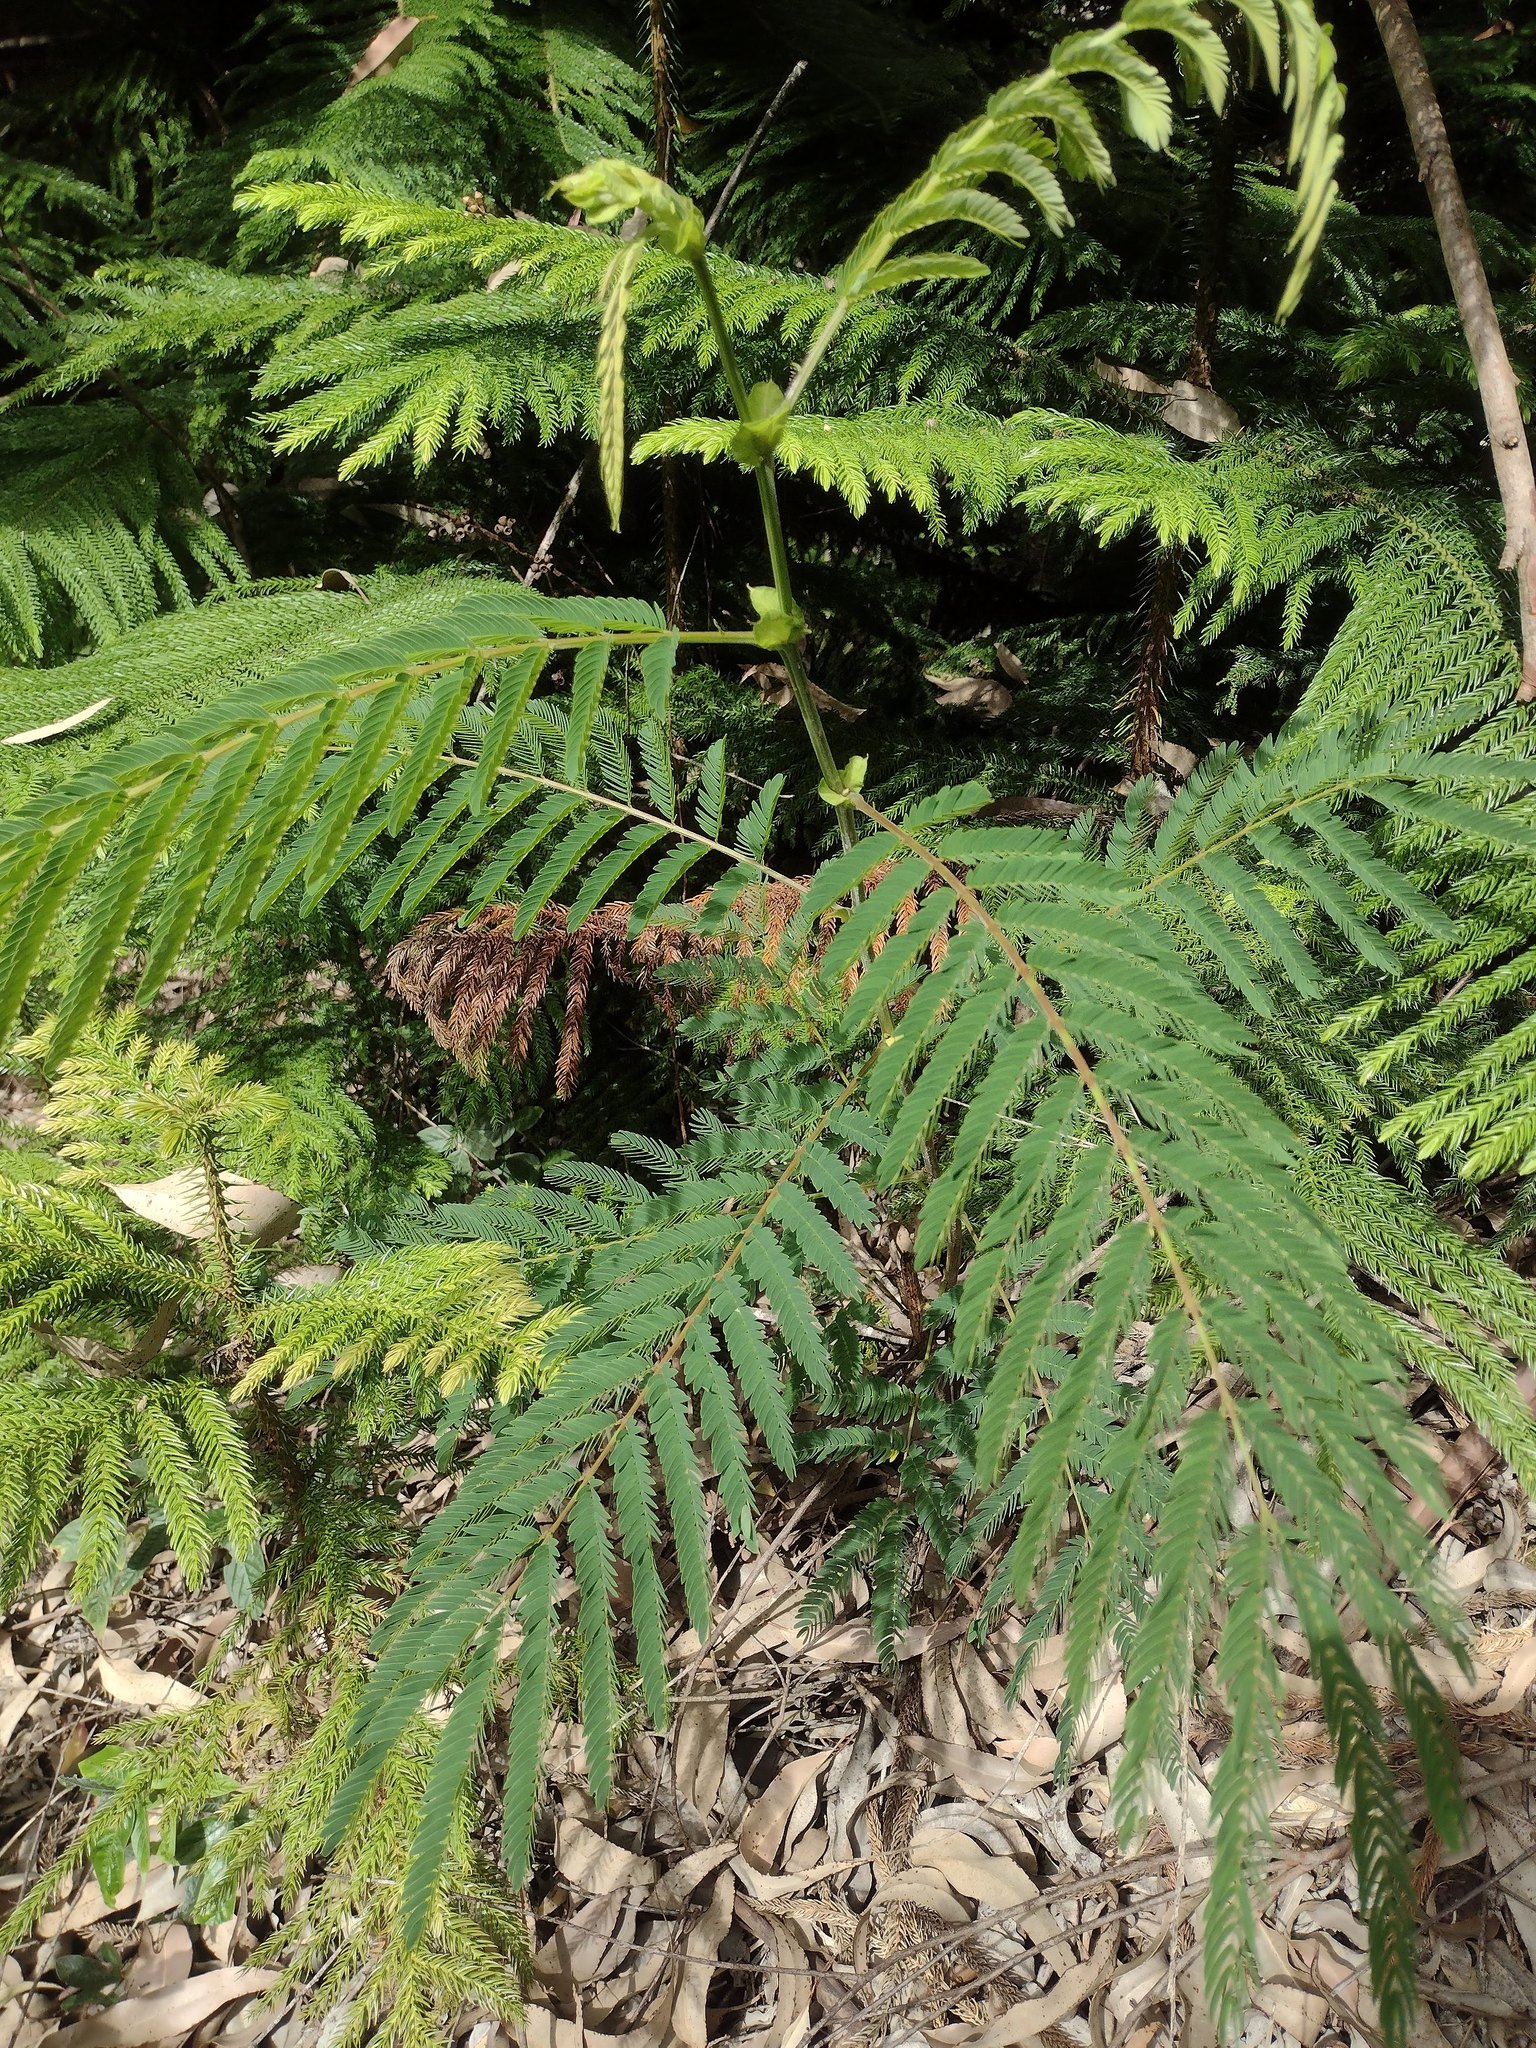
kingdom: Plantae
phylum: Tracheophyta
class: Magnoliopsida
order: Fabales
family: Fabaceae
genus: Falcataria
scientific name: Falcataria falcata
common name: Moluccan albizia
